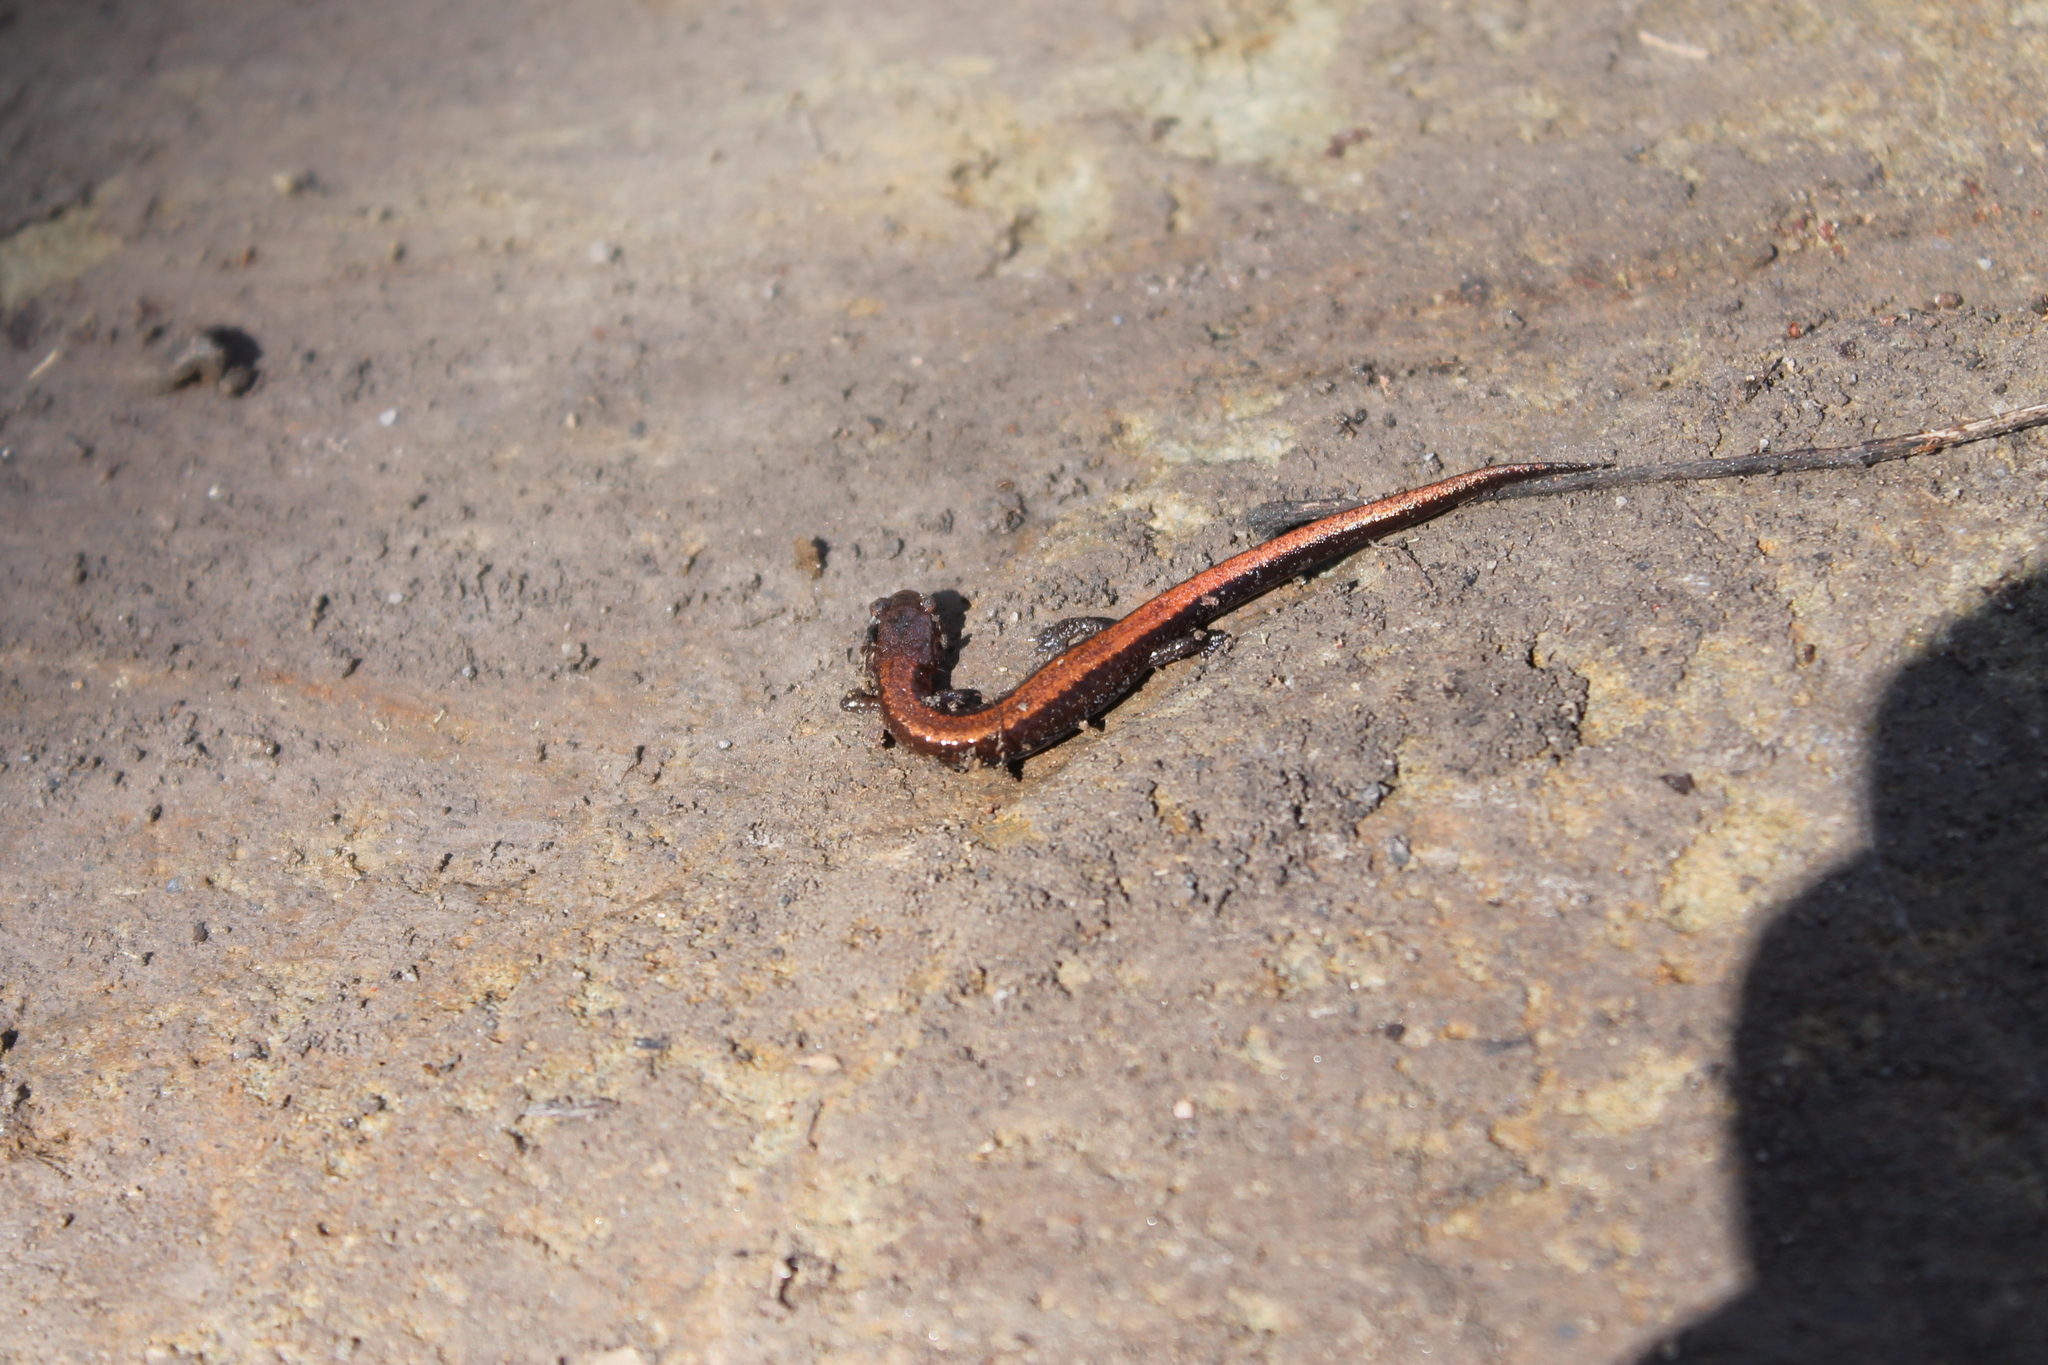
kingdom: Animalia
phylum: Chordata
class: Amphibia
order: Caudata
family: Plethodontidae
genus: Plethodon
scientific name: Plethodon serratus
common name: Southern red-backed salamander
